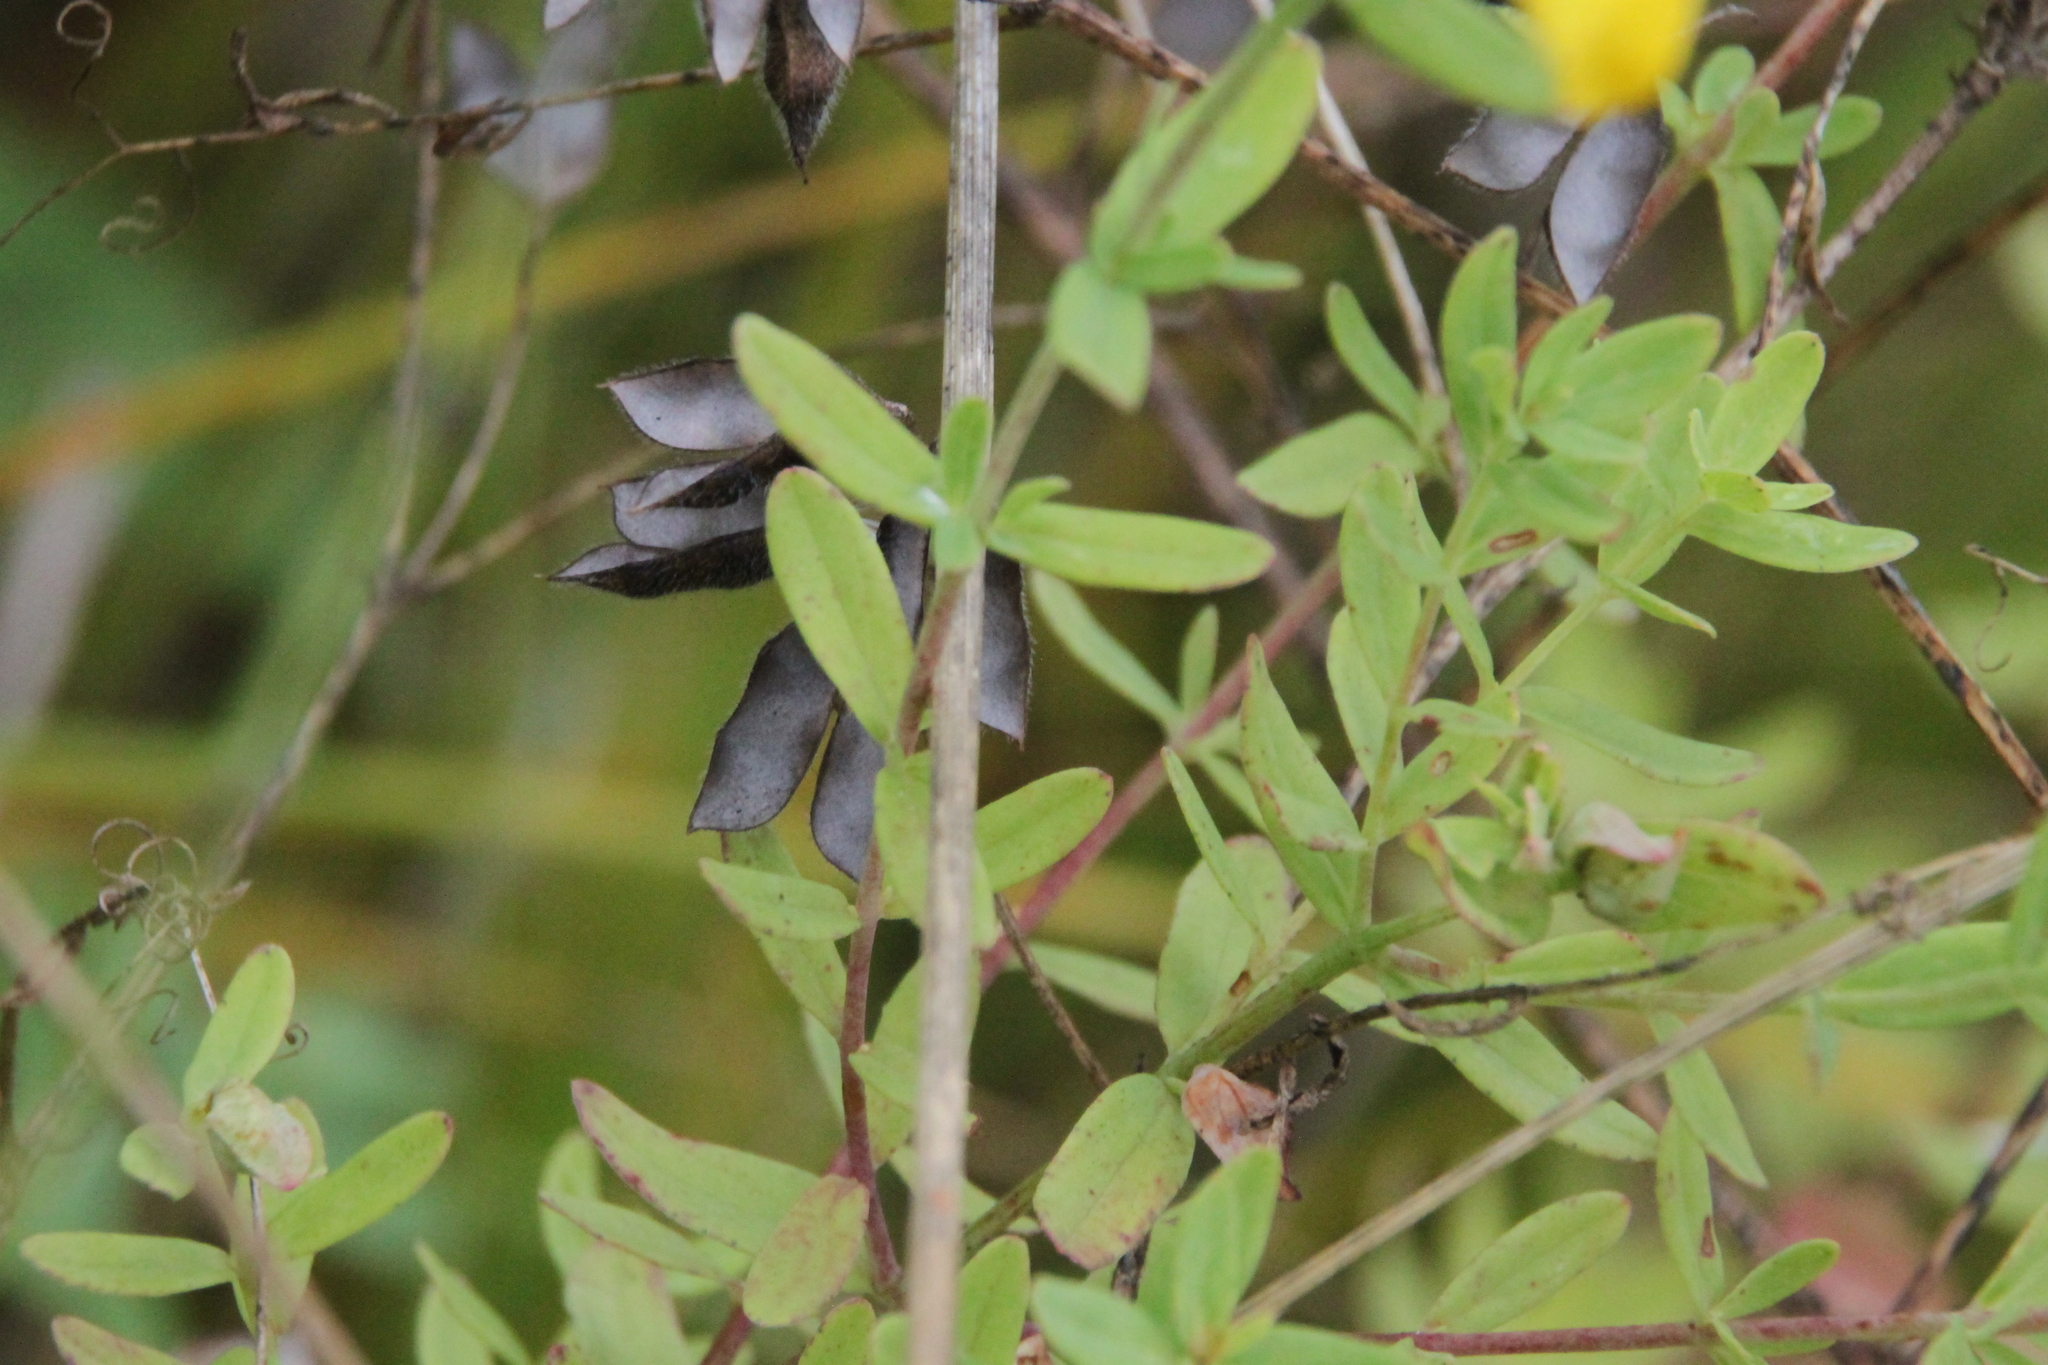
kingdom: Plantae
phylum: Tracheophyta
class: Magnoliopsida
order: Malpighiales
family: Hypericaceae
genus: Hypericum
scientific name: Hypericum perforatum
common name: Common st. johnswort
